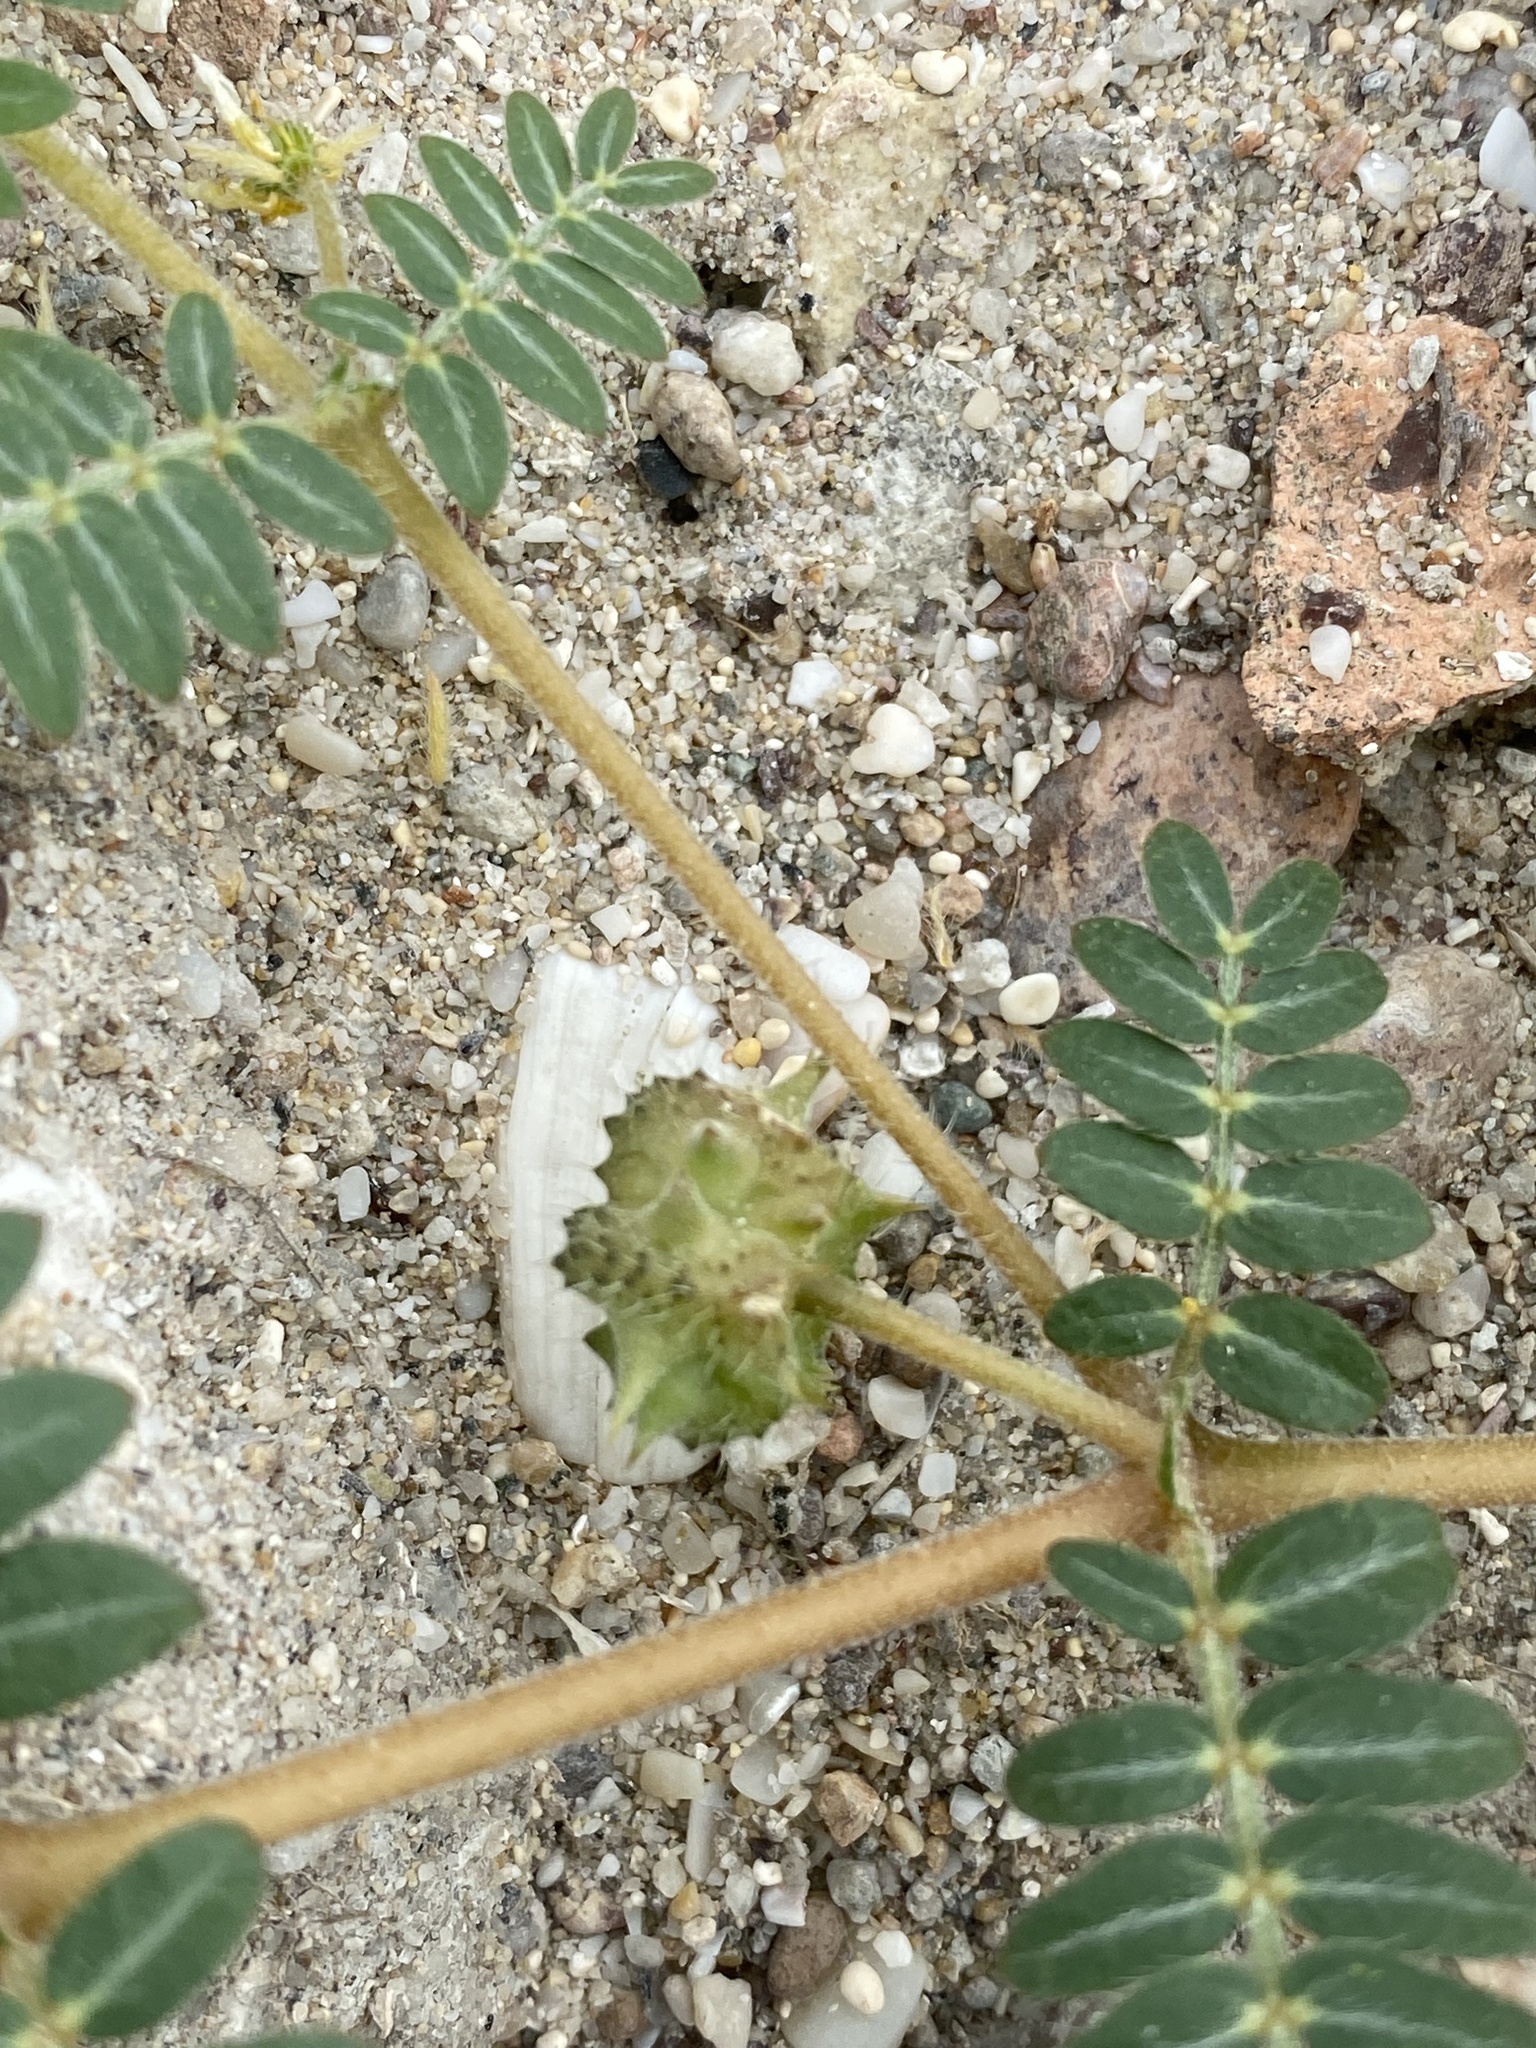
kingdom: Plantae
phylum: Tracheophyta
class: Magnoliopsida
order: Zygophyllales
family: Zygophyllaceae
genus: Tribulus
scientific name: Tribulus terrestris
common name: Puncturevine
